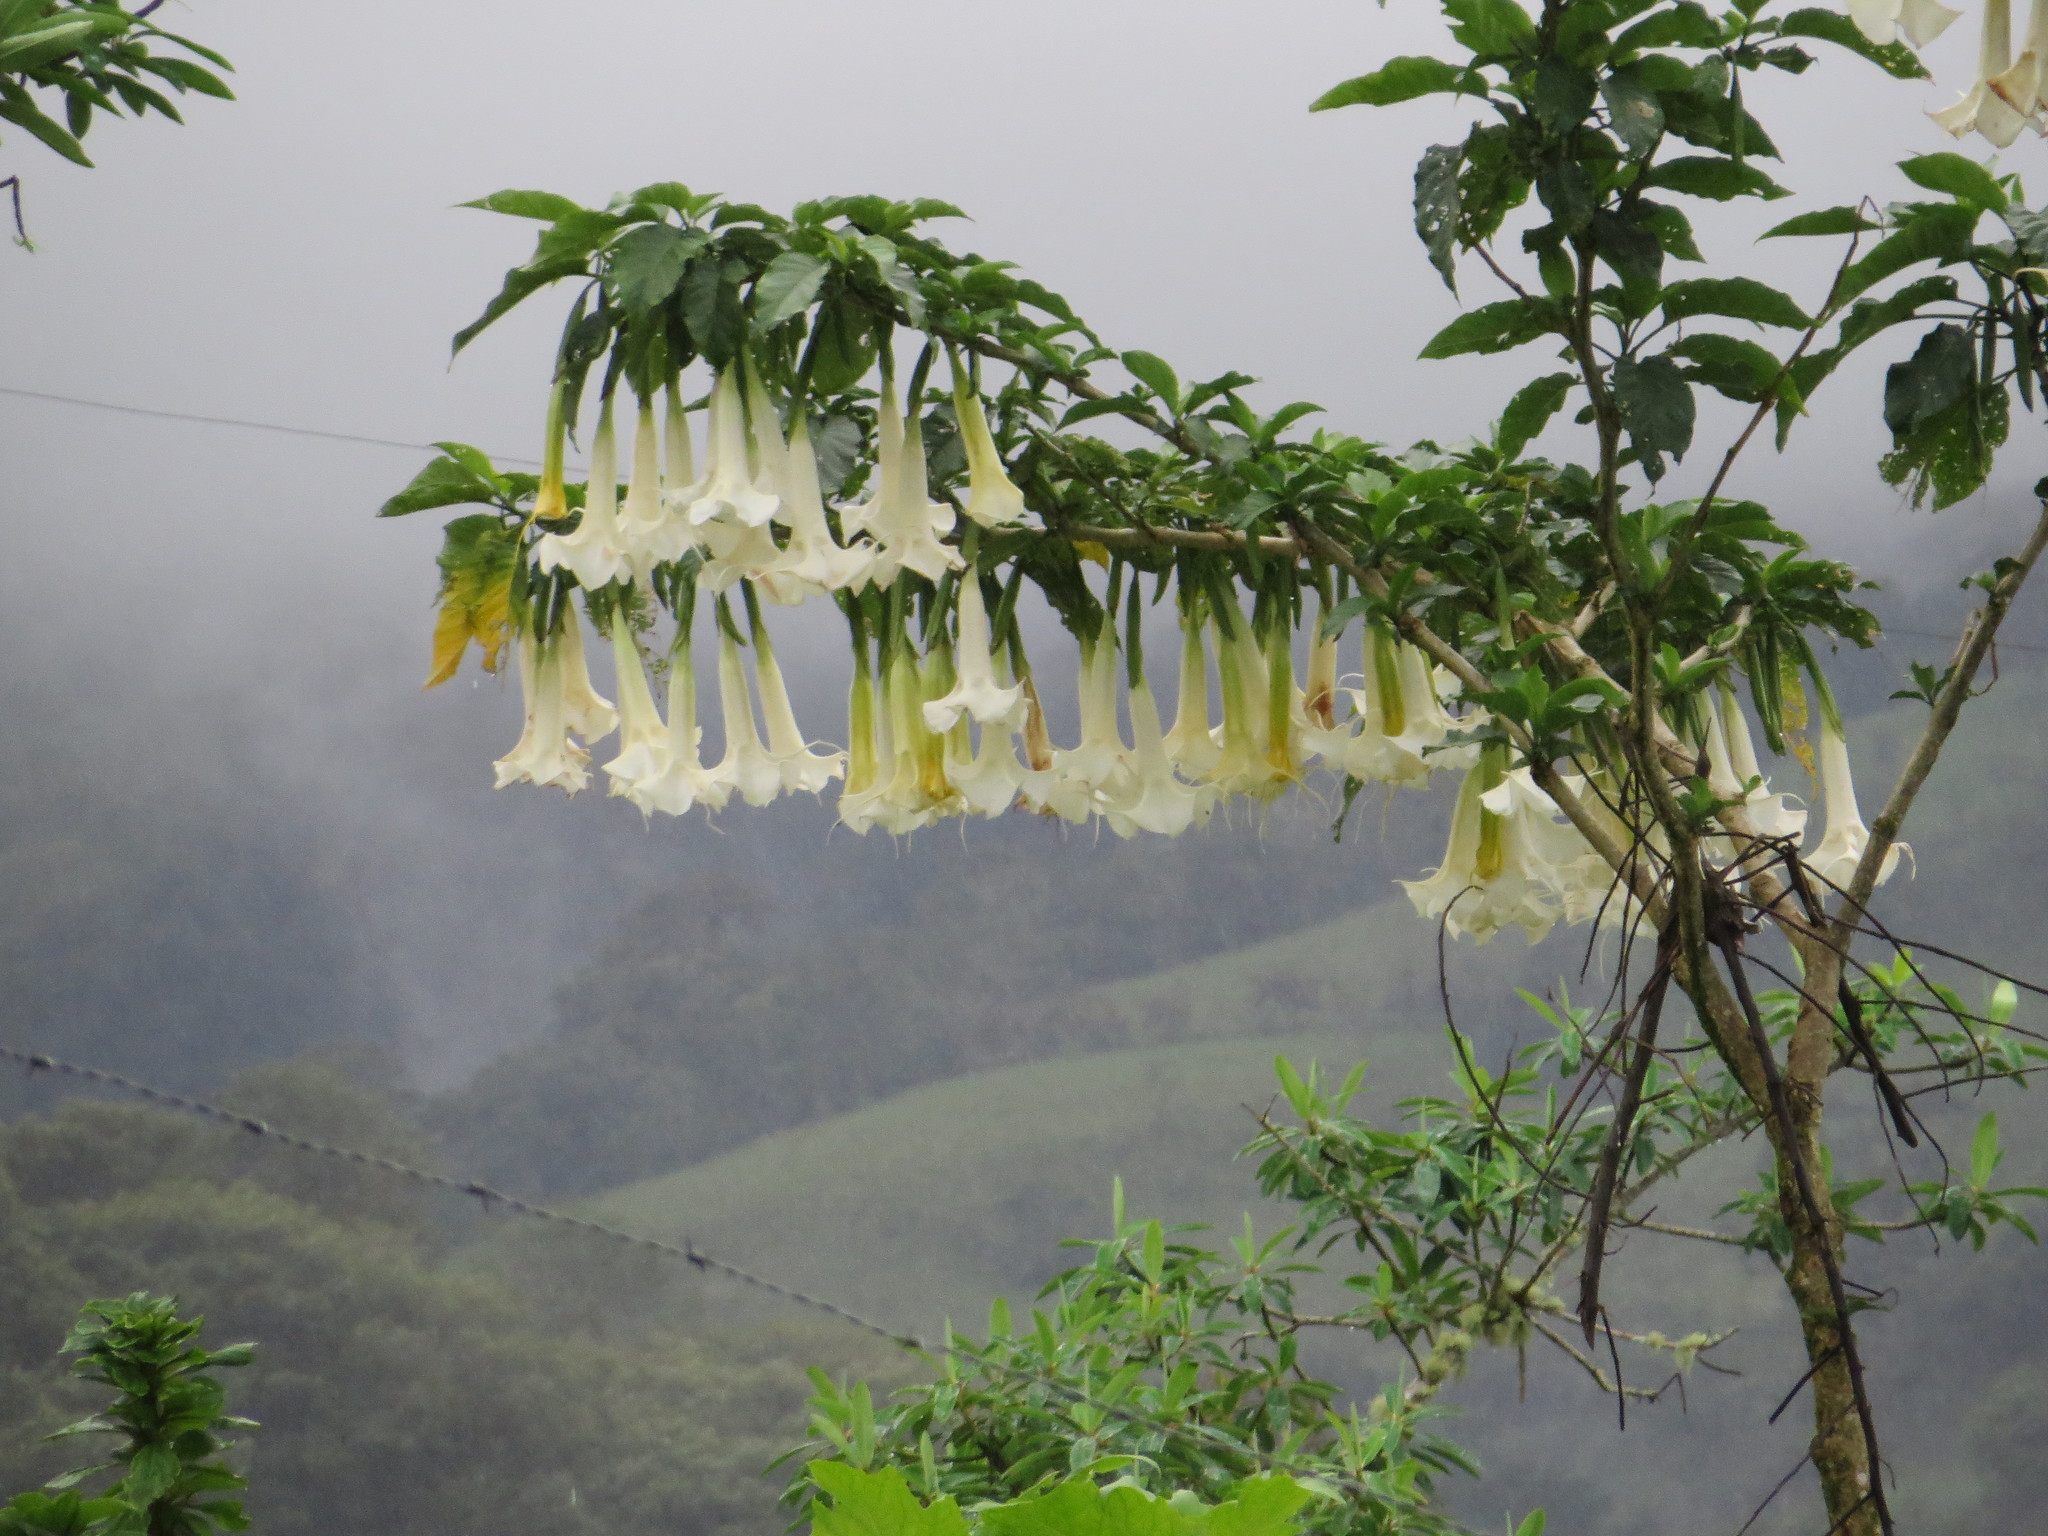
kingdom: Plantae
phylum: Tracheophyta
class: Magnoliopsida
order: Solanales
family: Solanaceae
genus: Brugmansia
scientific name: Brugmansia arborea
